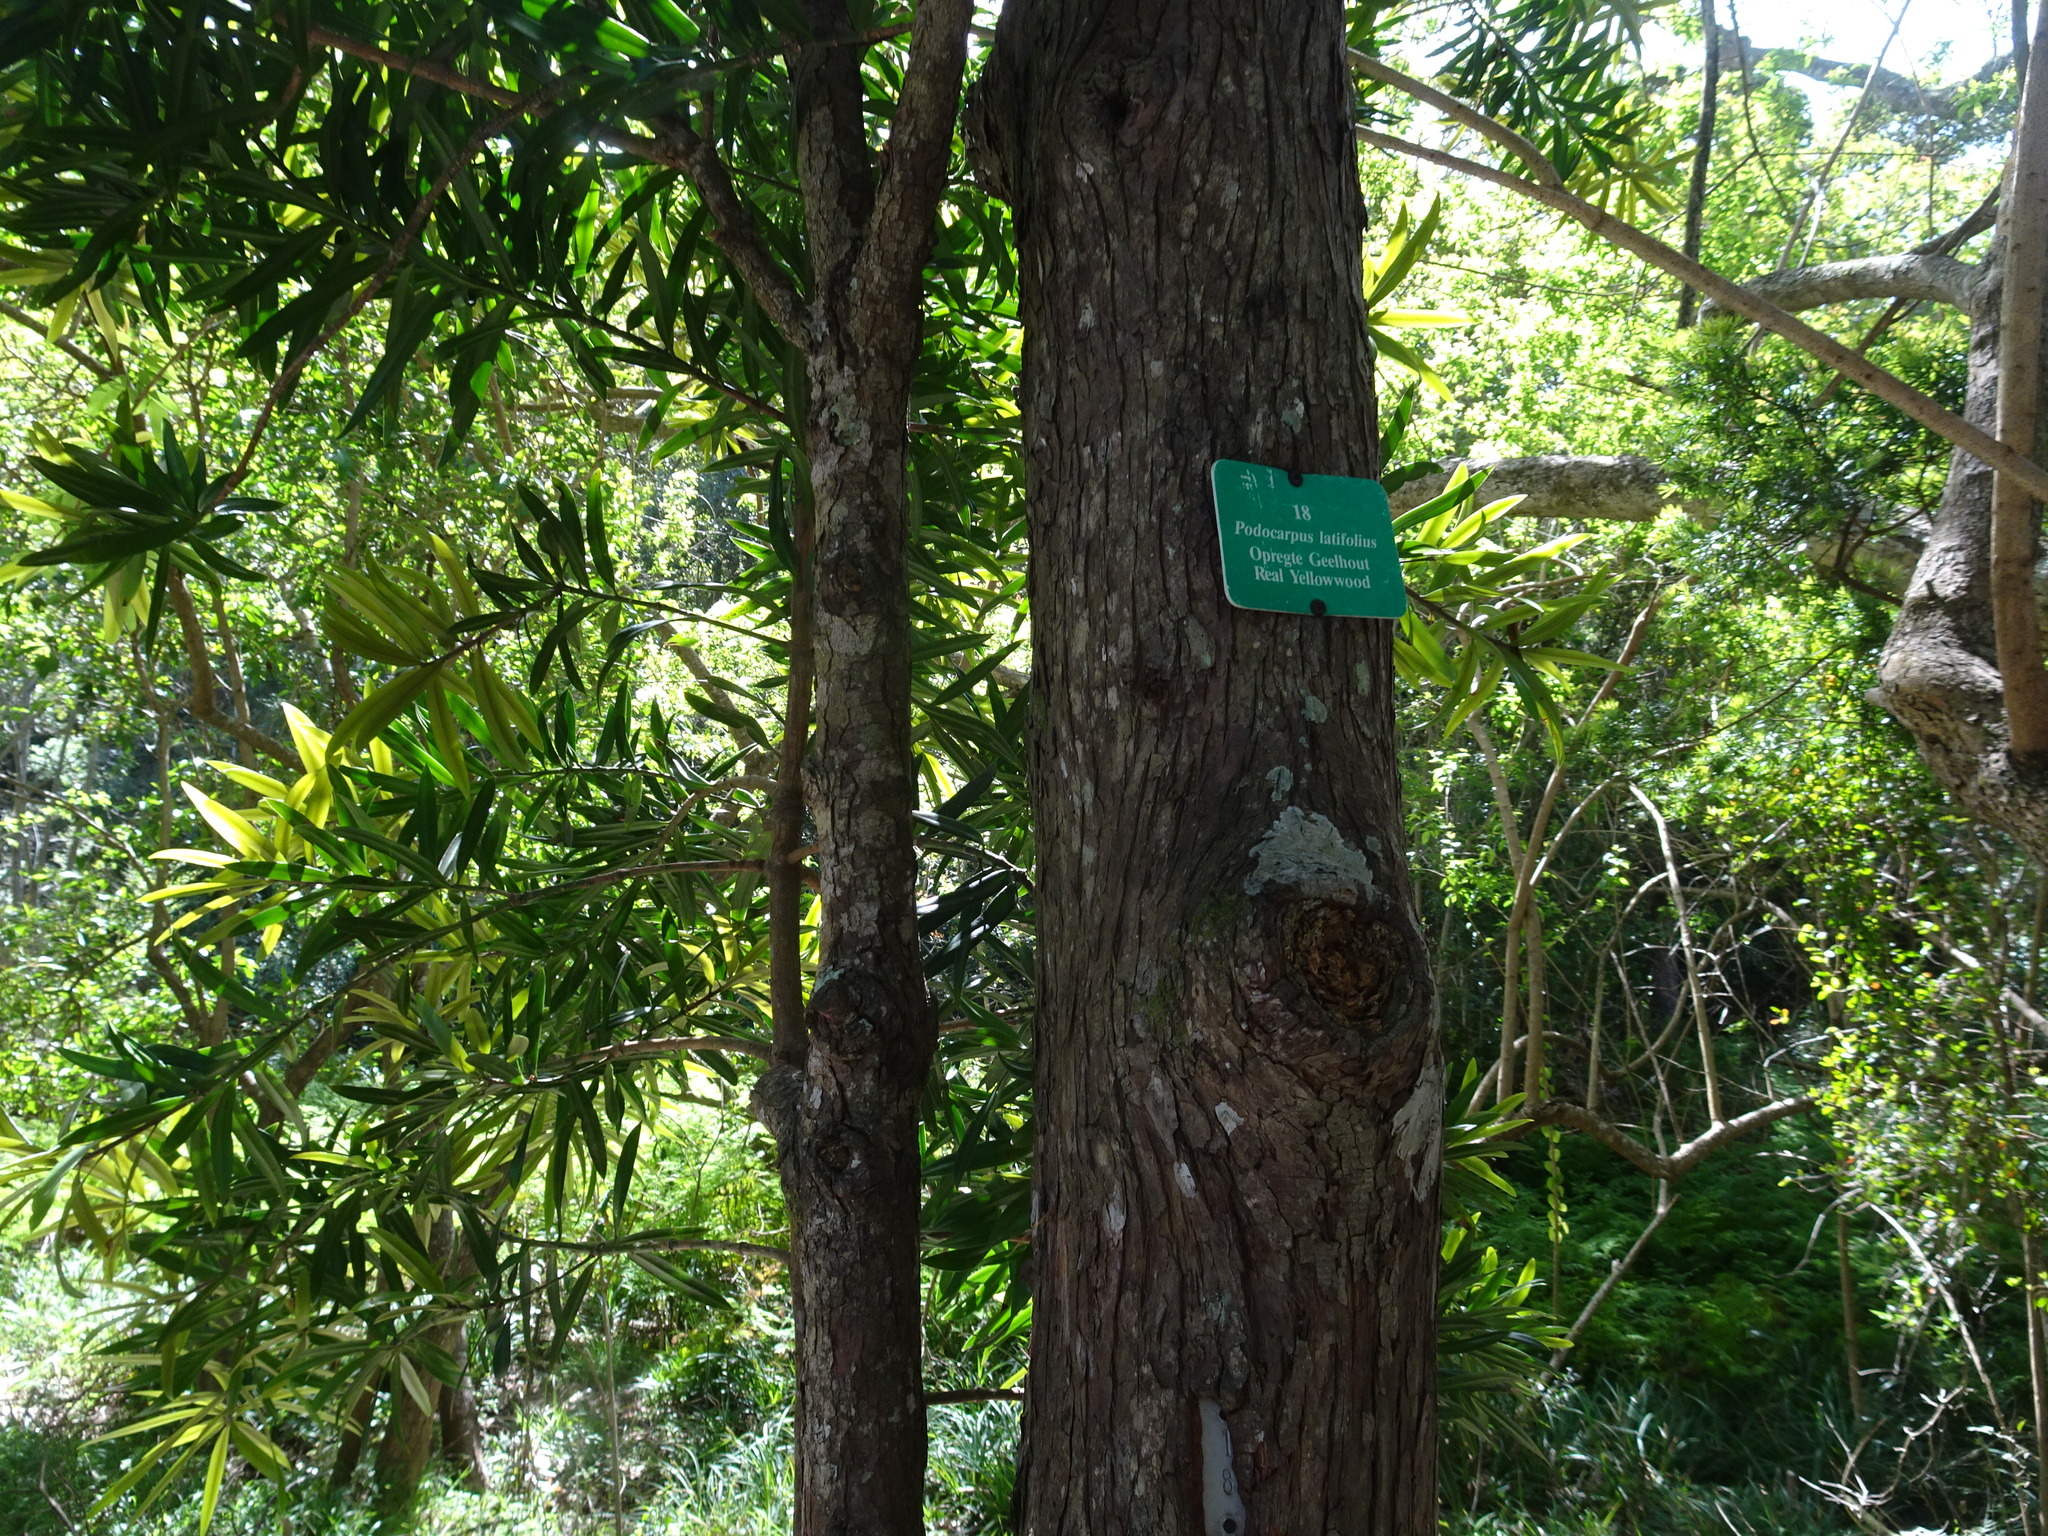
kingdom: Plantae
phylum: Tracheophyta
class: Pinopsida
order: Pinales
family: Podocarpaceae
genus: Podocarpus
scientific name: Podocarpus latifolius
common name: True yellowwood
